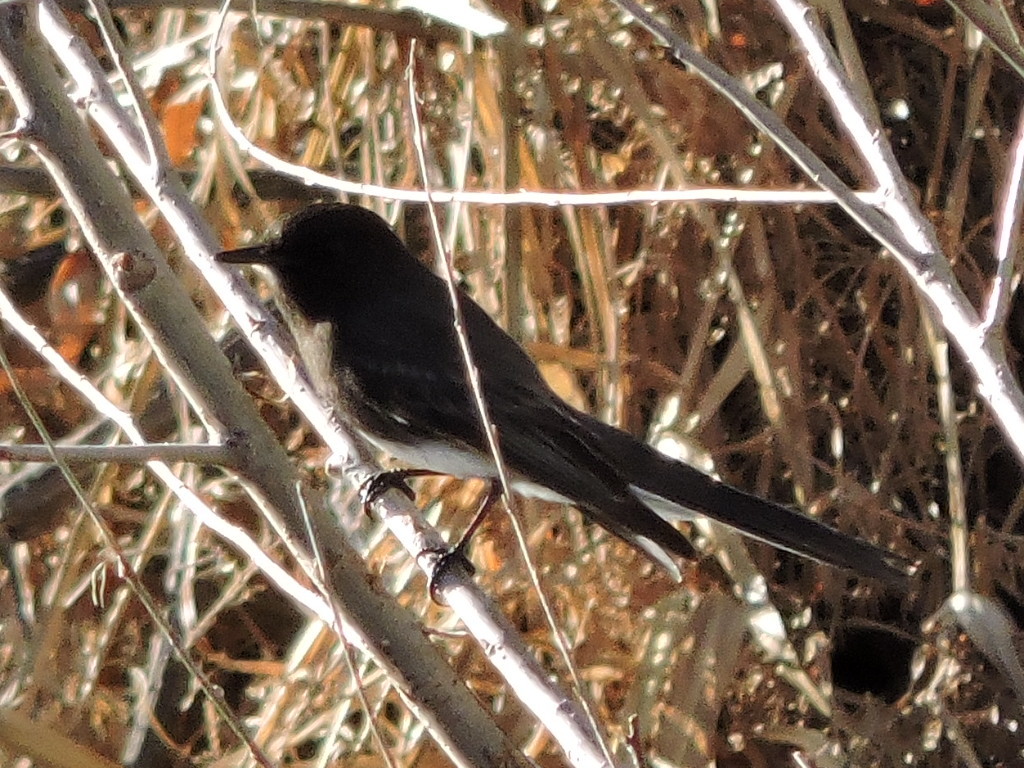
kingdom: Animalia
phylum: Chordata
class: Aves
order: Passeriformes
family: Tyrannidae
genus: Sayornis
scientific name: Sayornis nigricans
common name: Black phoebe
